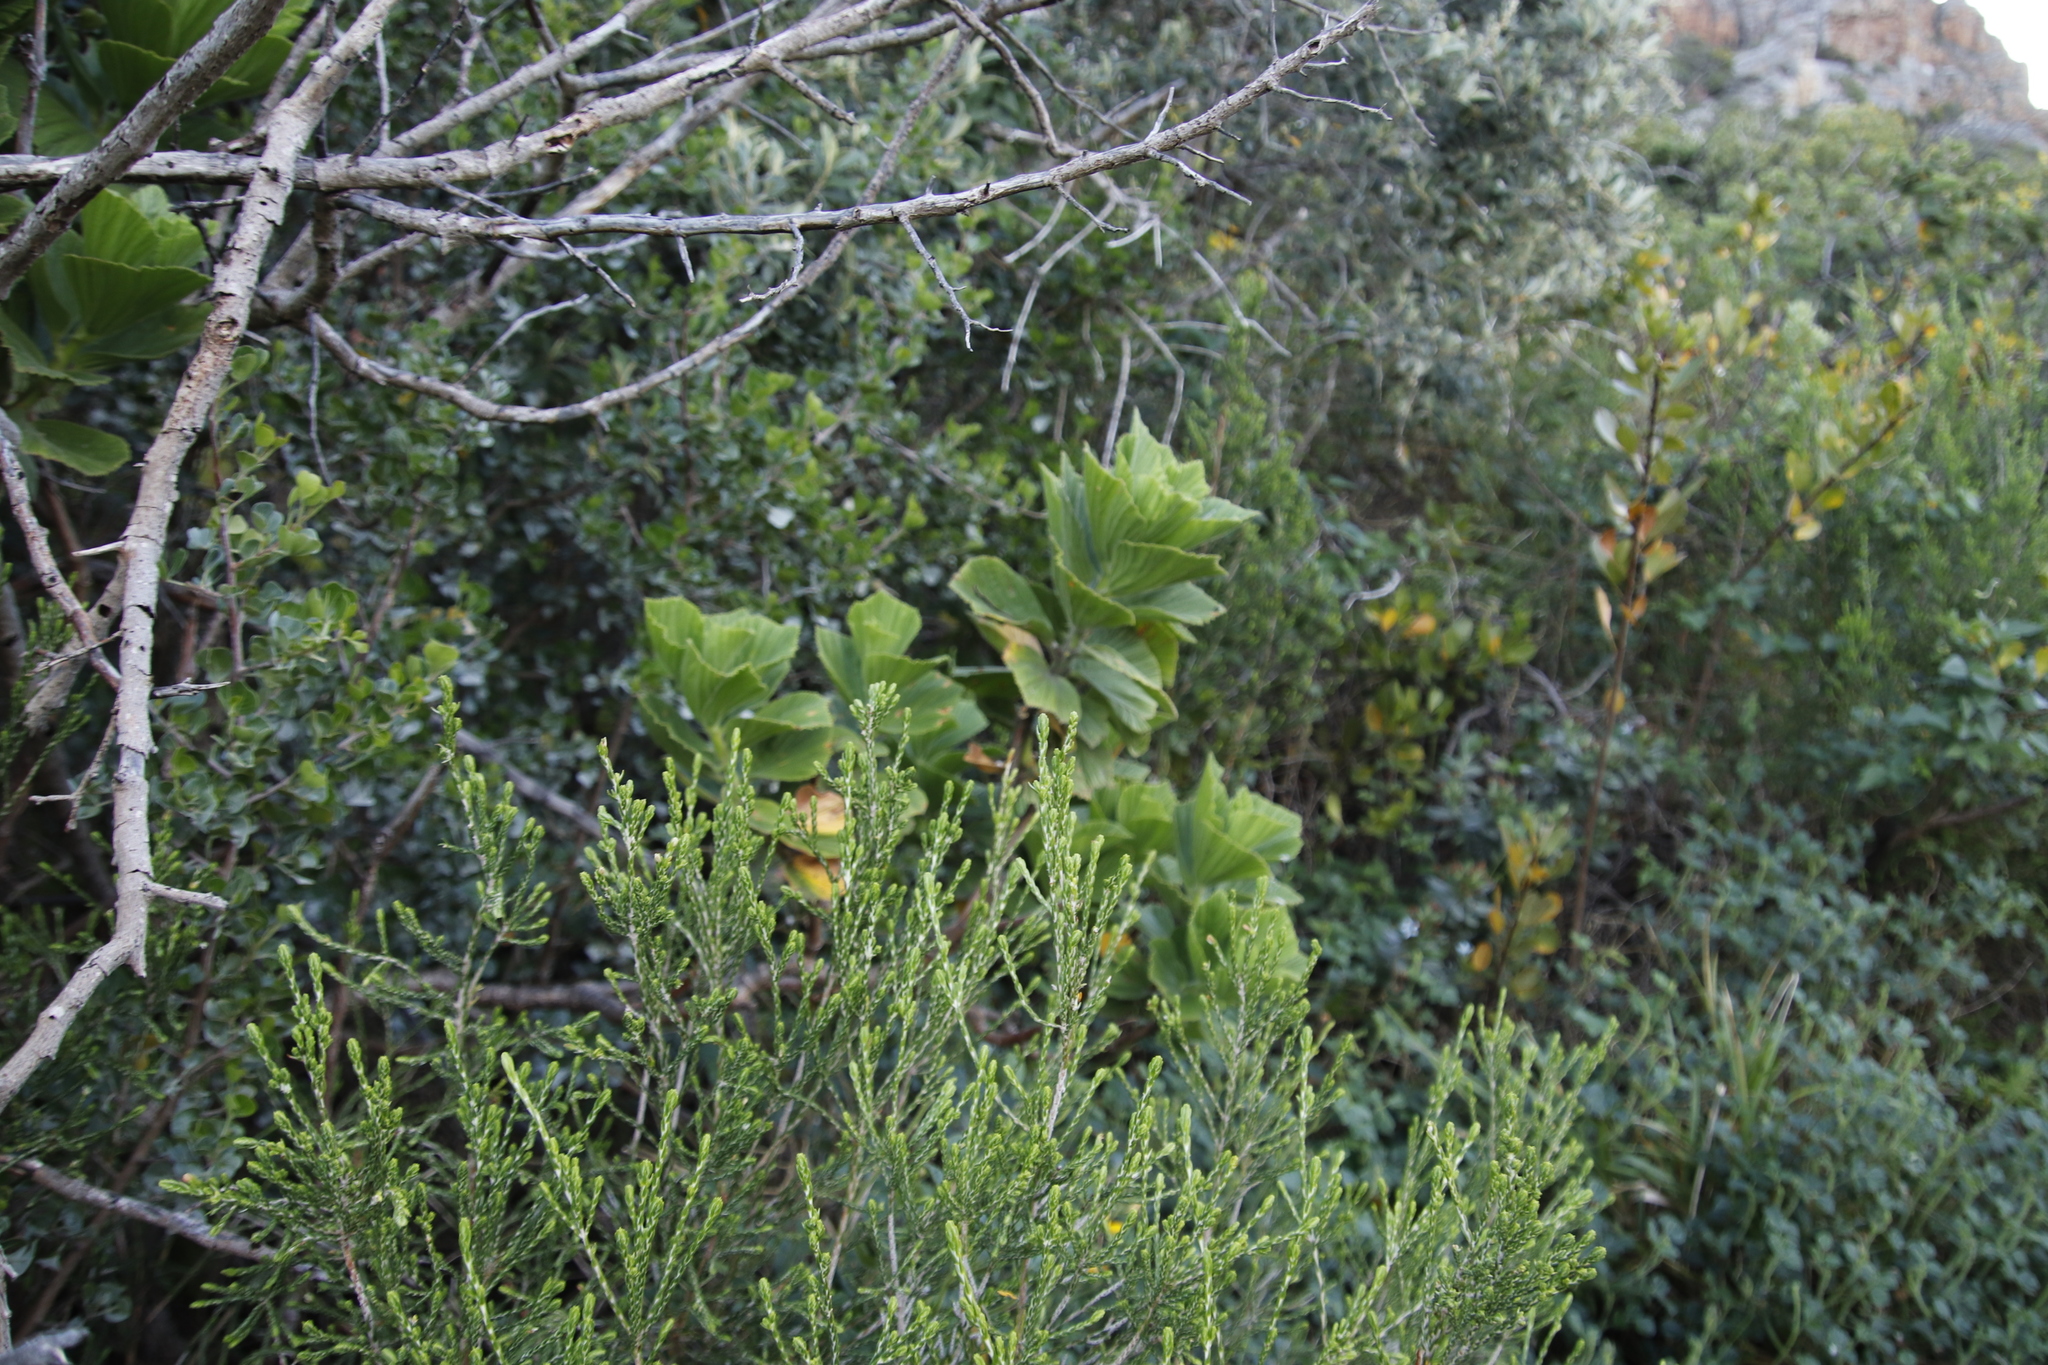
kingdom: Plantae
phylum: Tracheophyta
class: Magnoliopsida
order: Geraniales
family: Geraniaceae
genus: Pelargonium
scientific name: Pelargonium cucullatum
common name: Tree pelargonium
